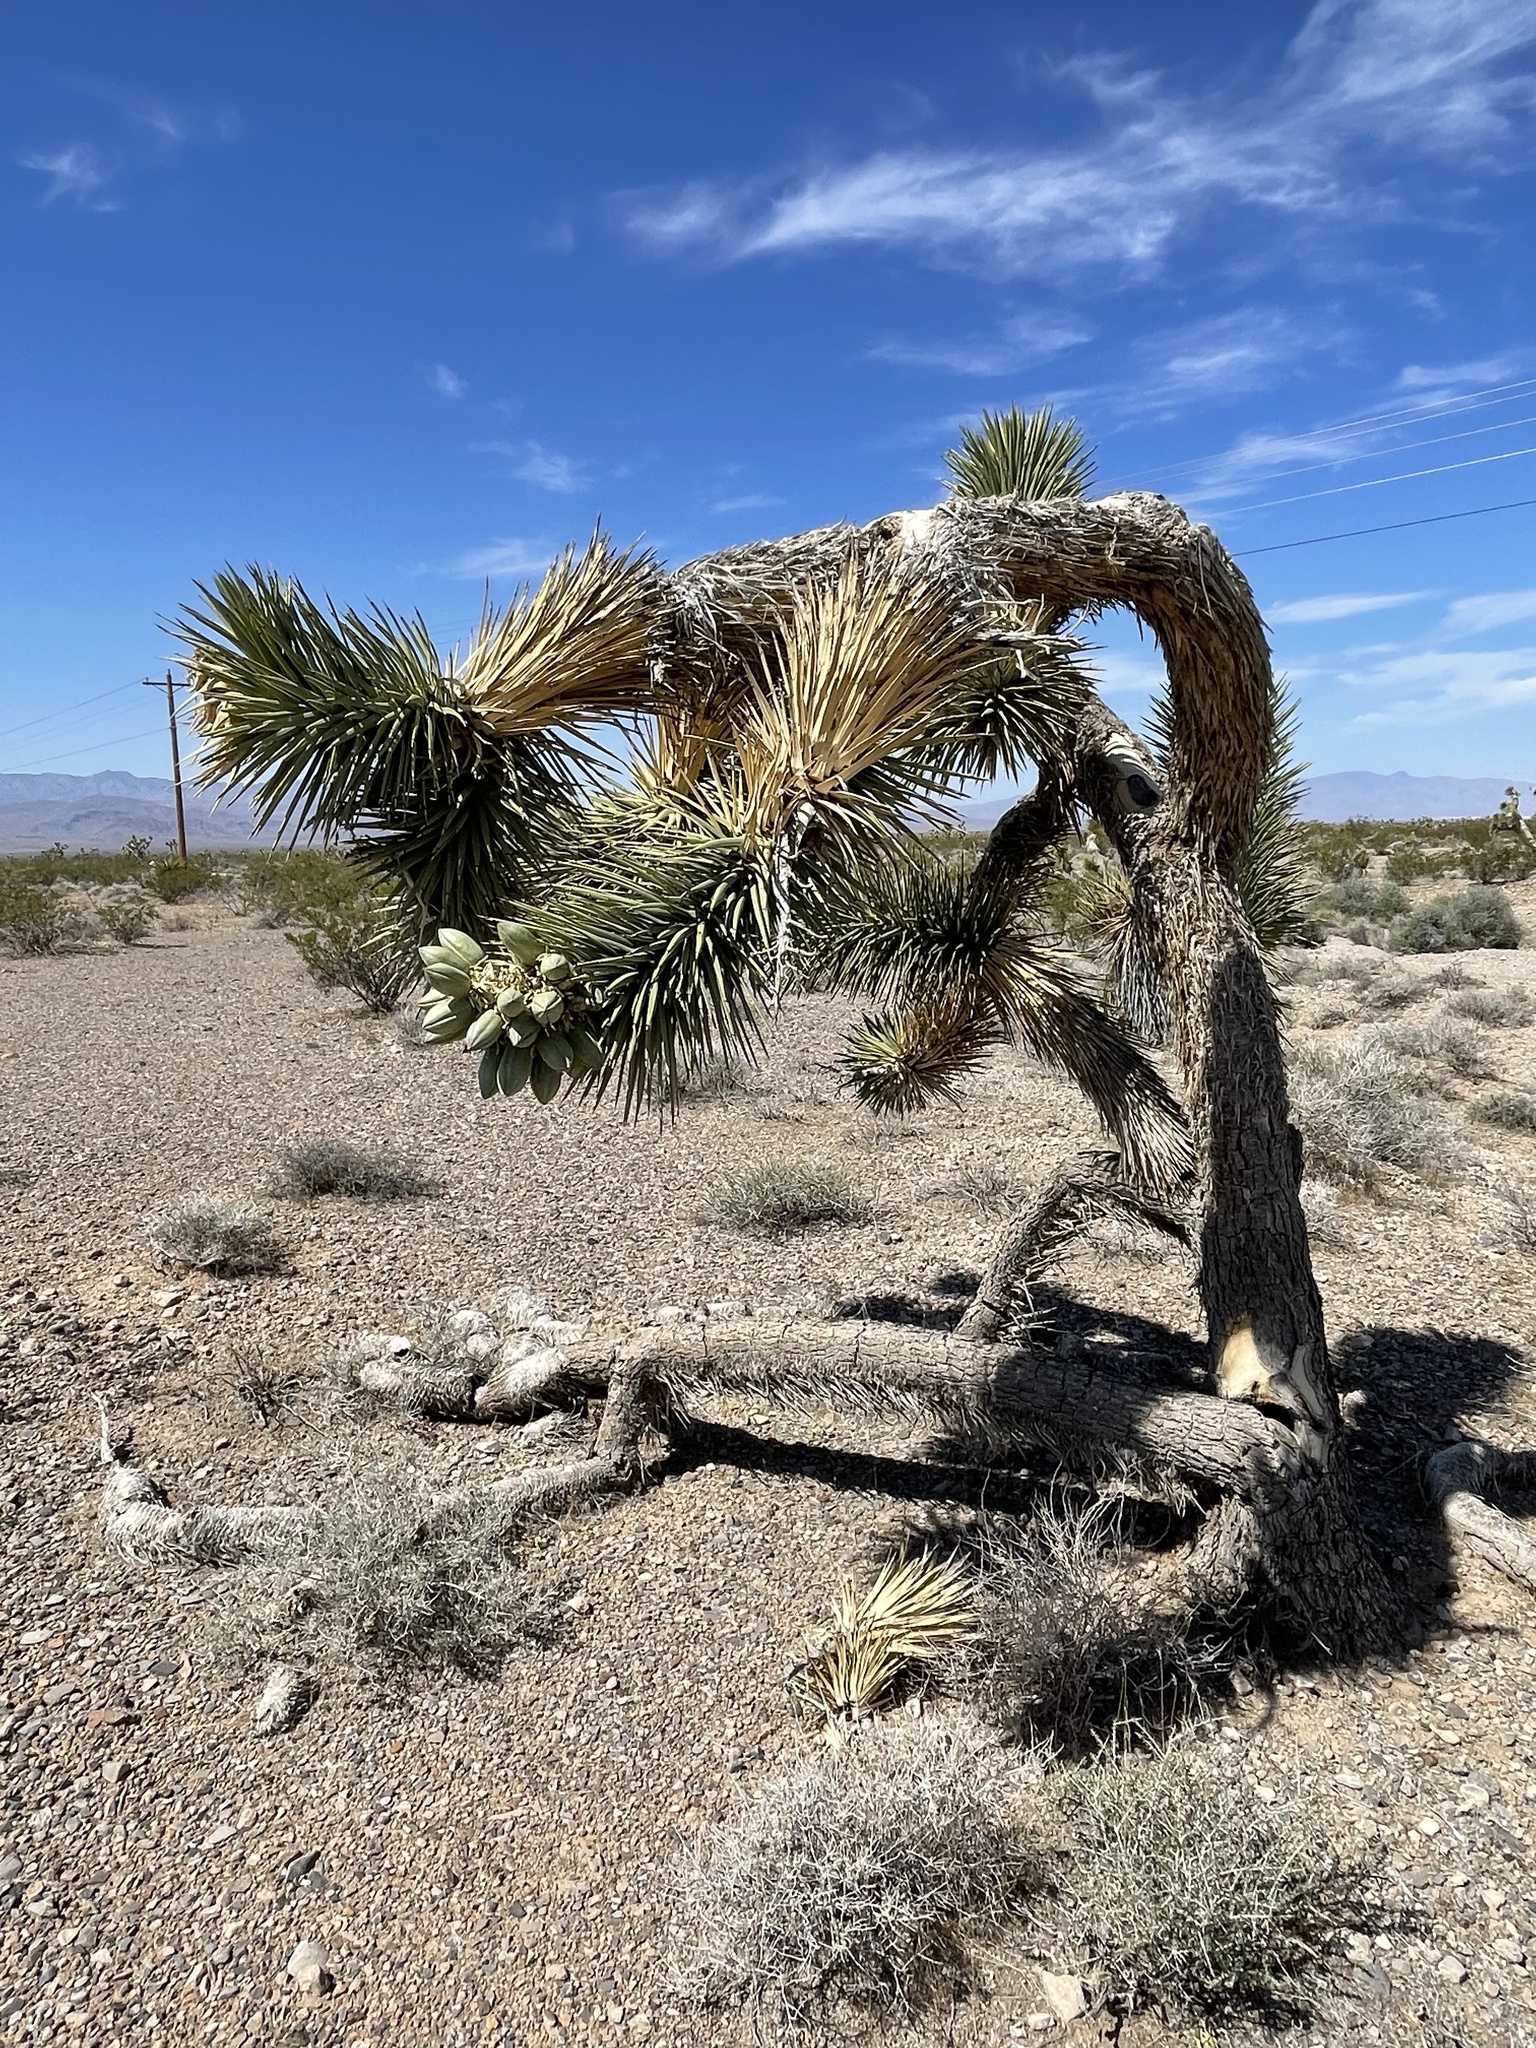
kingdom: Plantae
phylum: Tracheophyta
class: Liliopsida
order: Asparagales
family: Asparagaceae
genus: Yucca
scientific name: Yucca brevifolia
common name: Joshua tree
